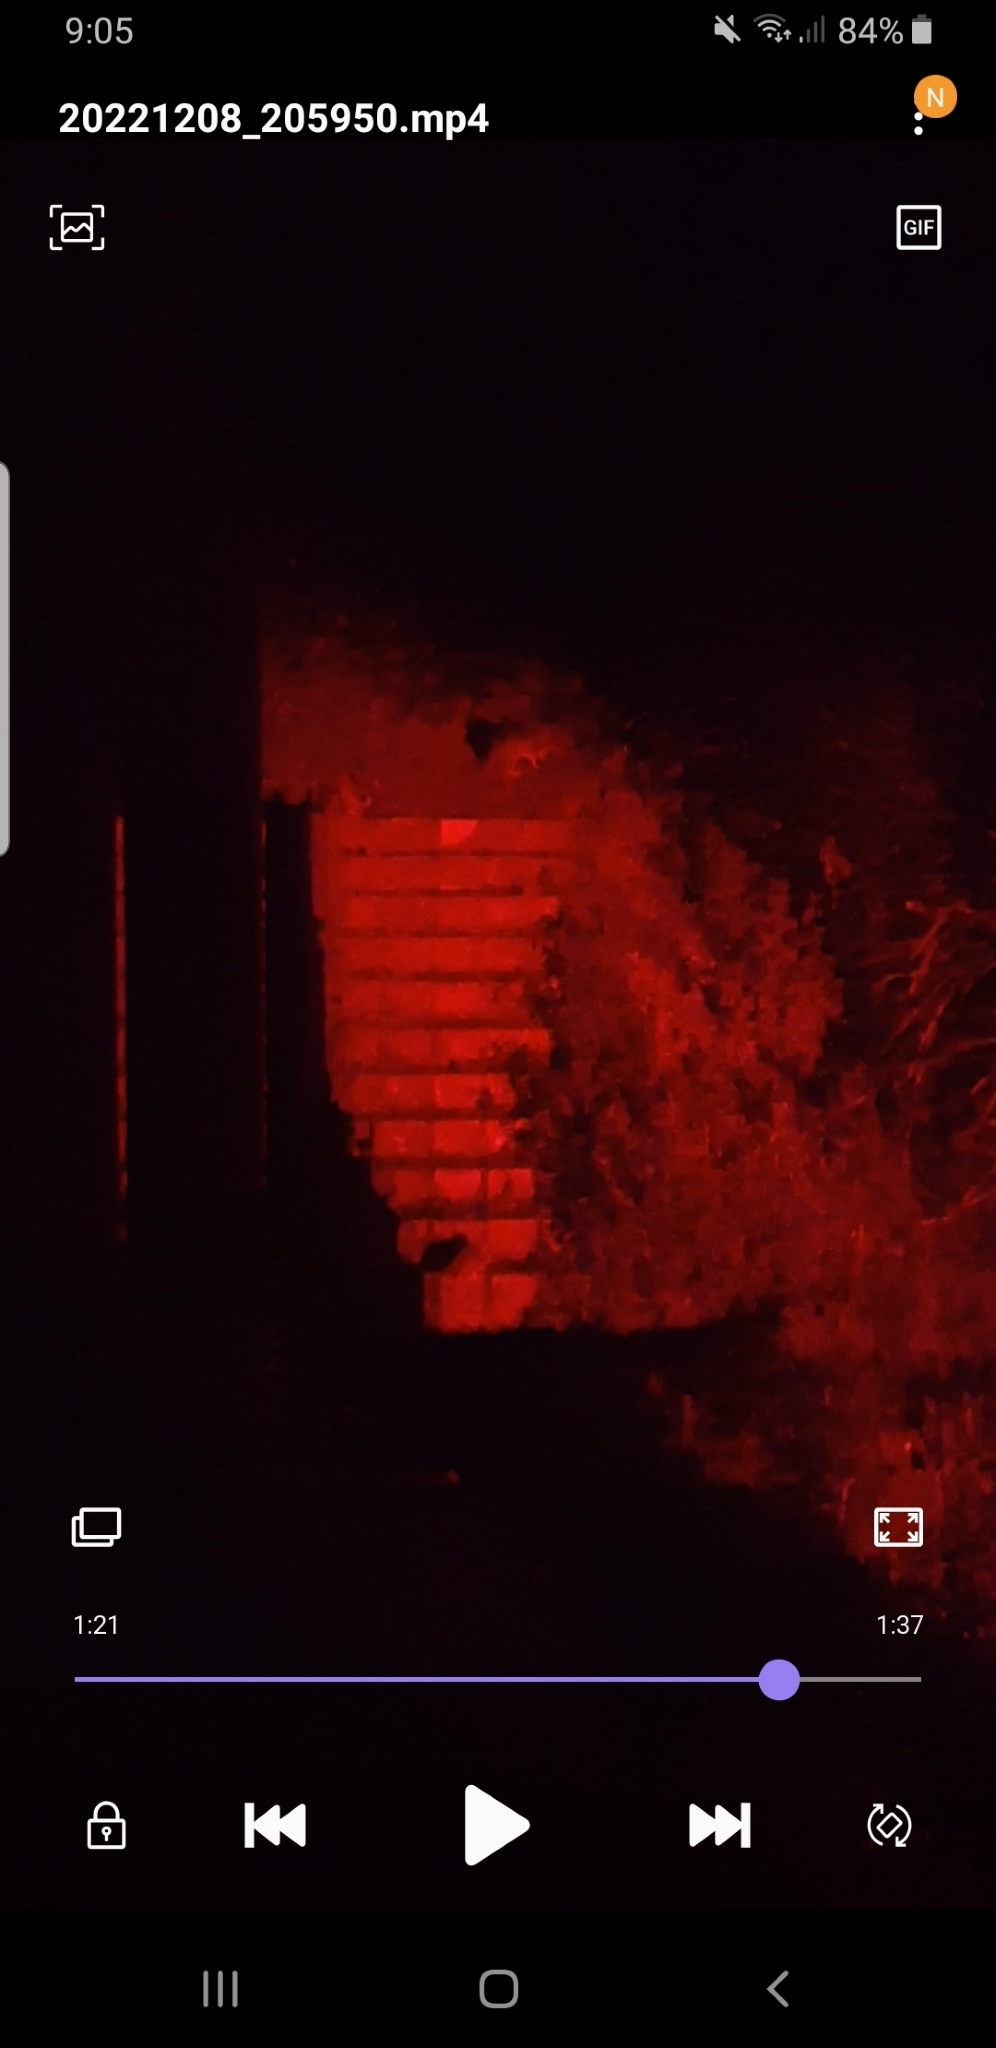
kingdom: Animalia
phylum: Chordata
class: Mammalia
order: Peramelemorphia
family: Peramelidae
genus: Perameles
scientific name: Perameles nasuta
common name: Long-nosed bandicoot
